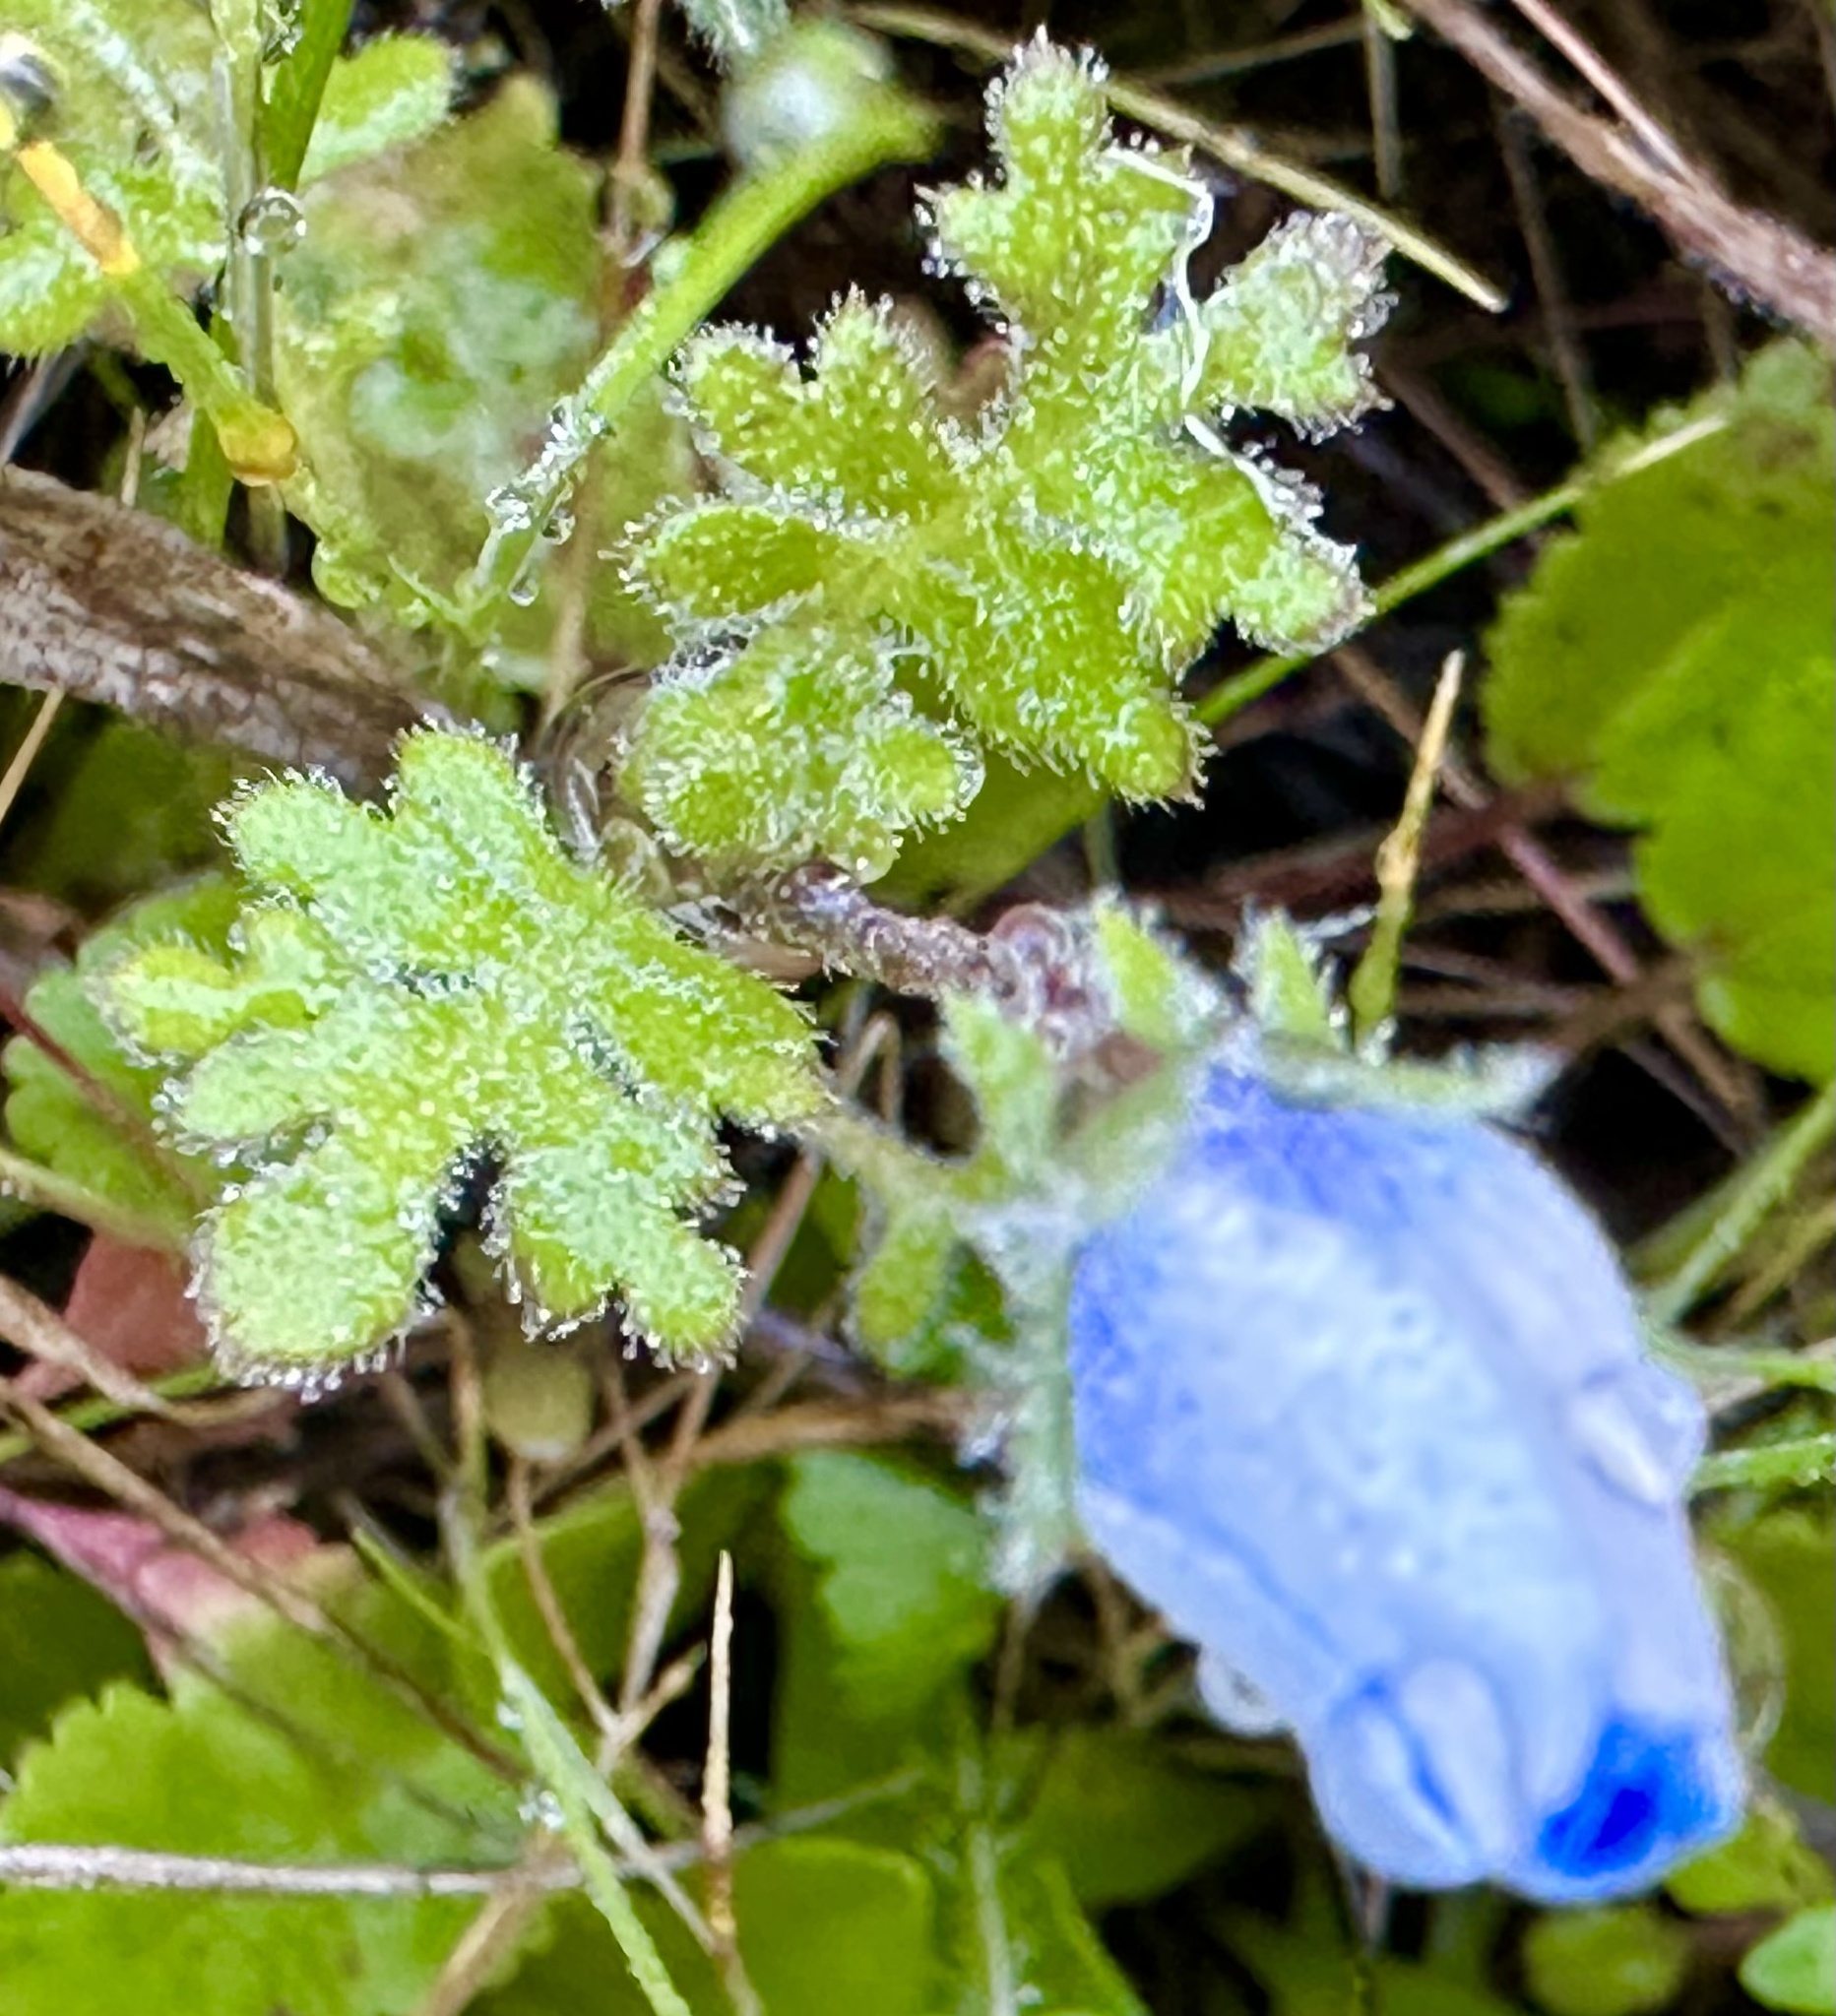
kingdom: Plantae
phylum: Tracheophyta
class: Magnoliopsida
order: Boraginales
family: Hydrophyllaceae
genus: Nemophila
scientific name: Nemophila menziesii
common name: Baby's-blue-eyes
